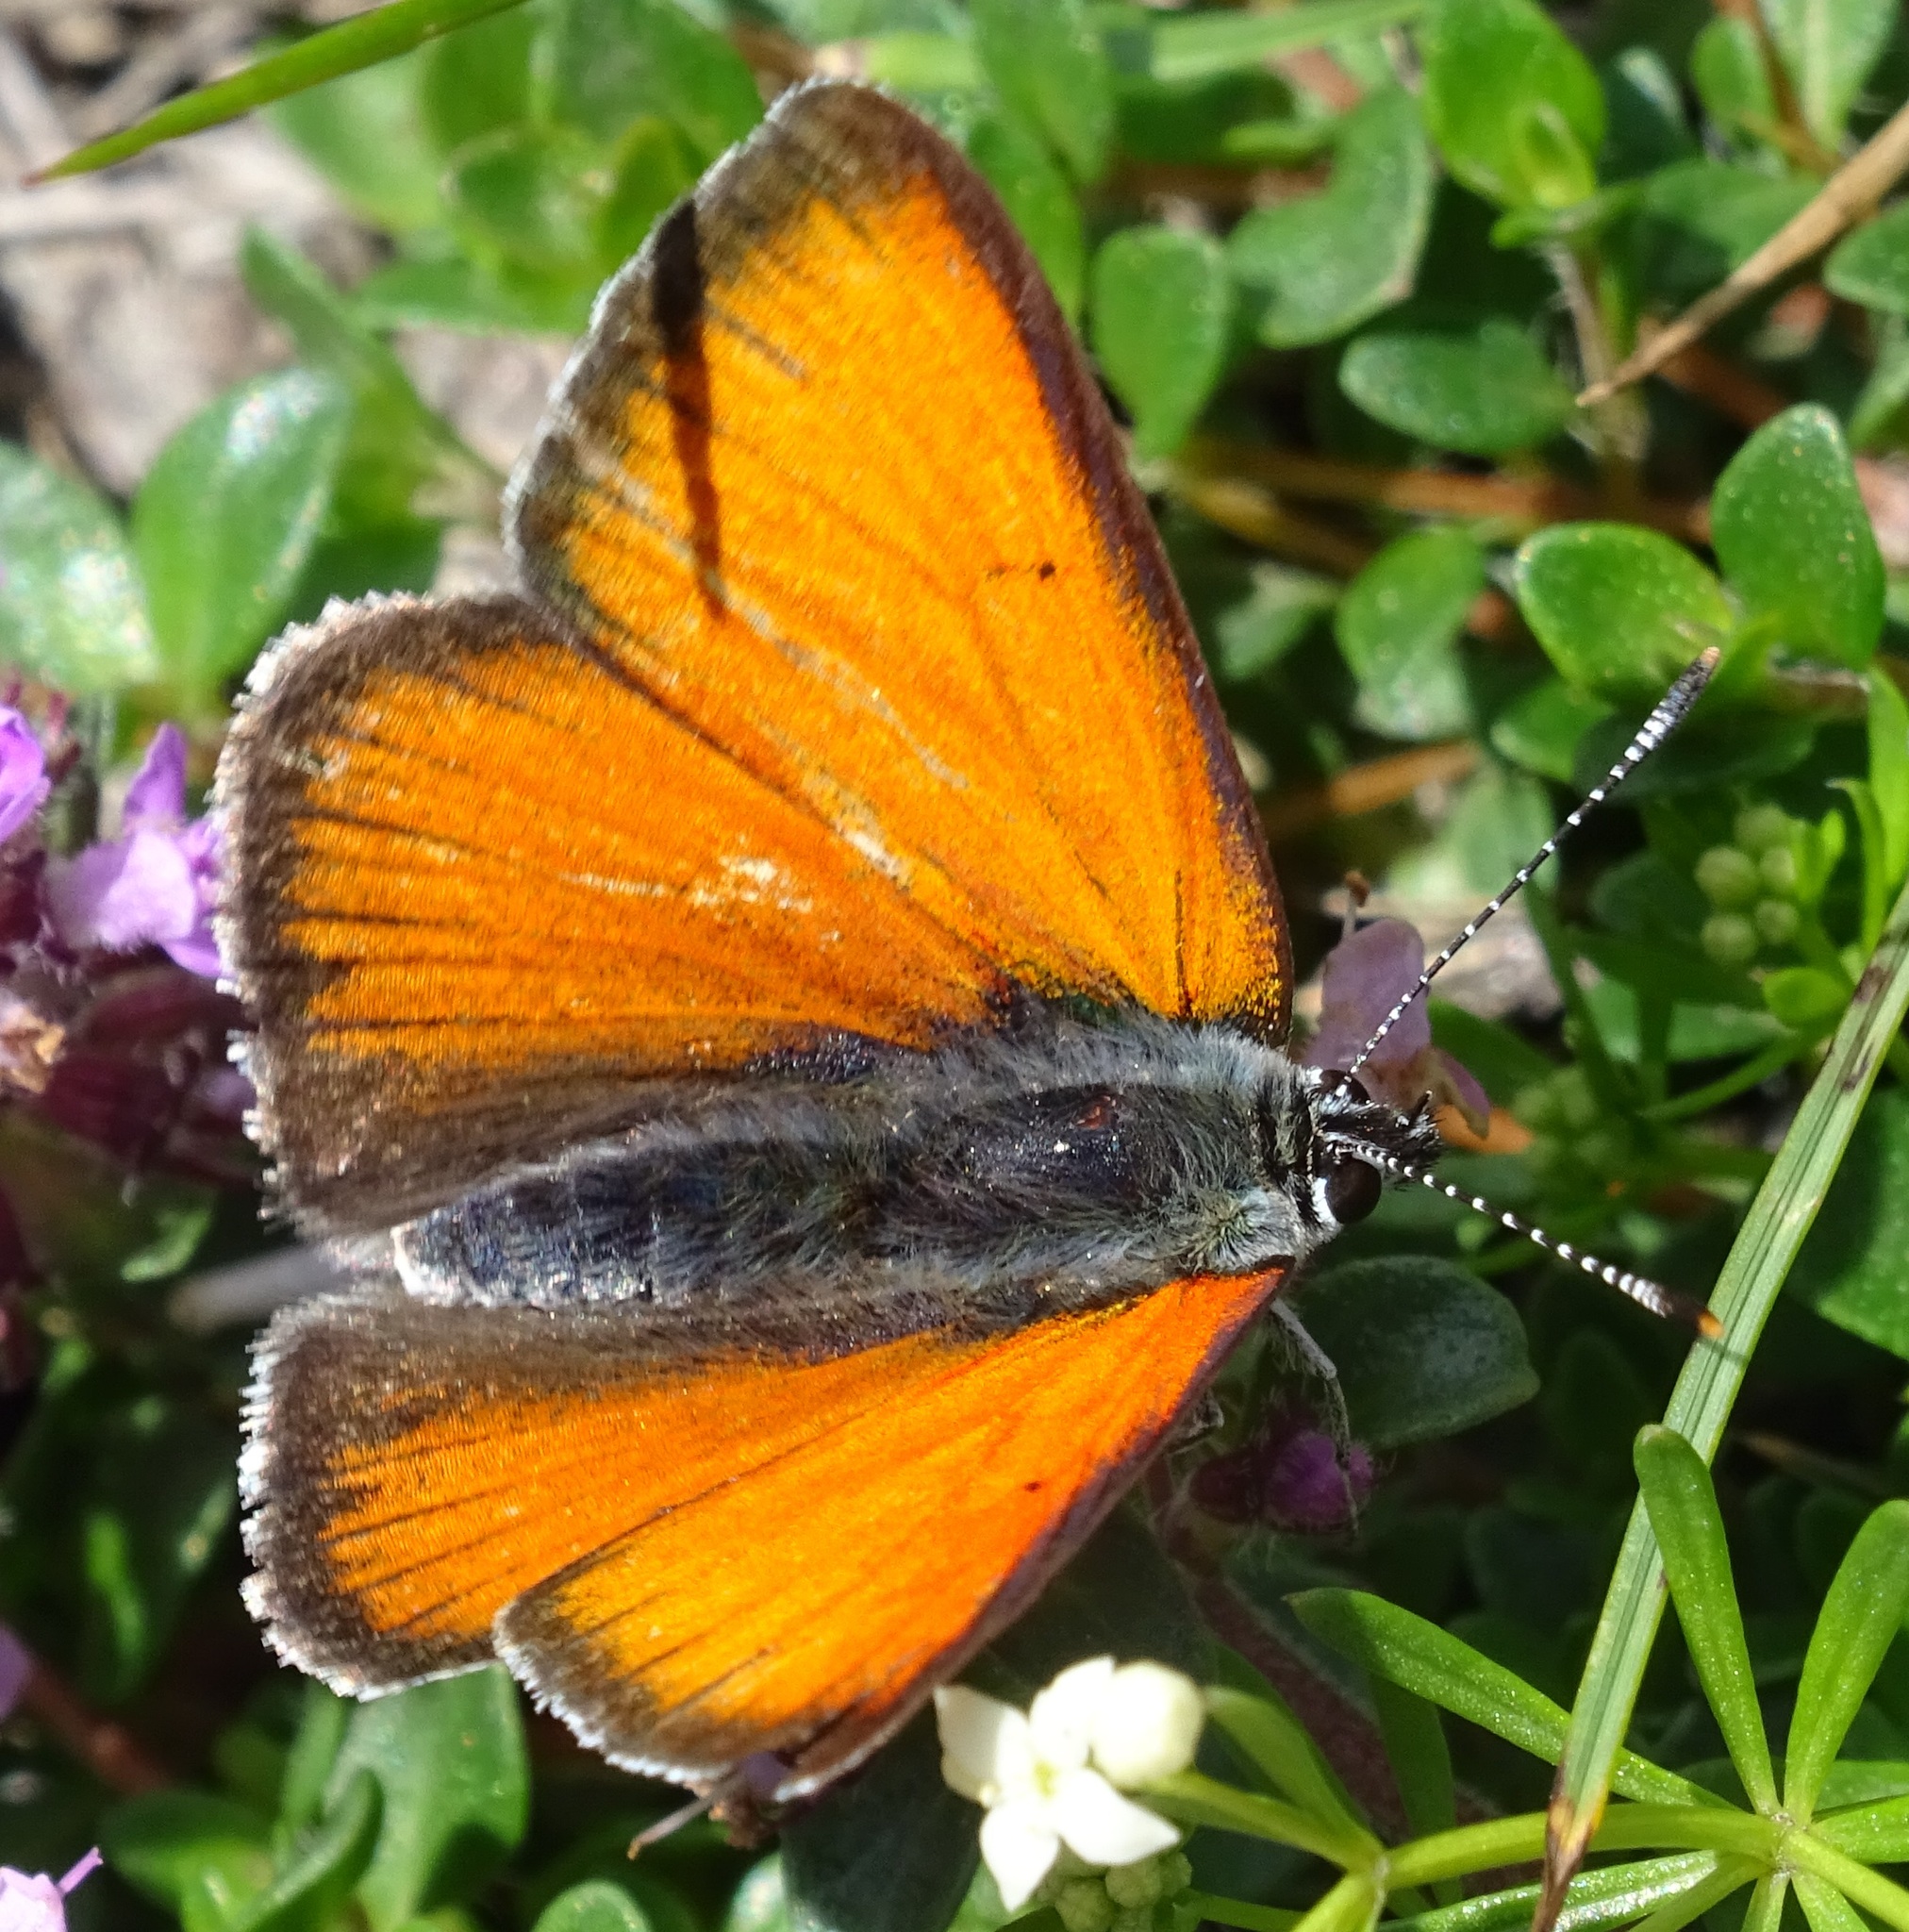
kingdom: Animalia
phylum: Arthropoda
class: Insecta
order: Lepidoptera
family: Lycaenidae
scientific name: Lycaenidae
